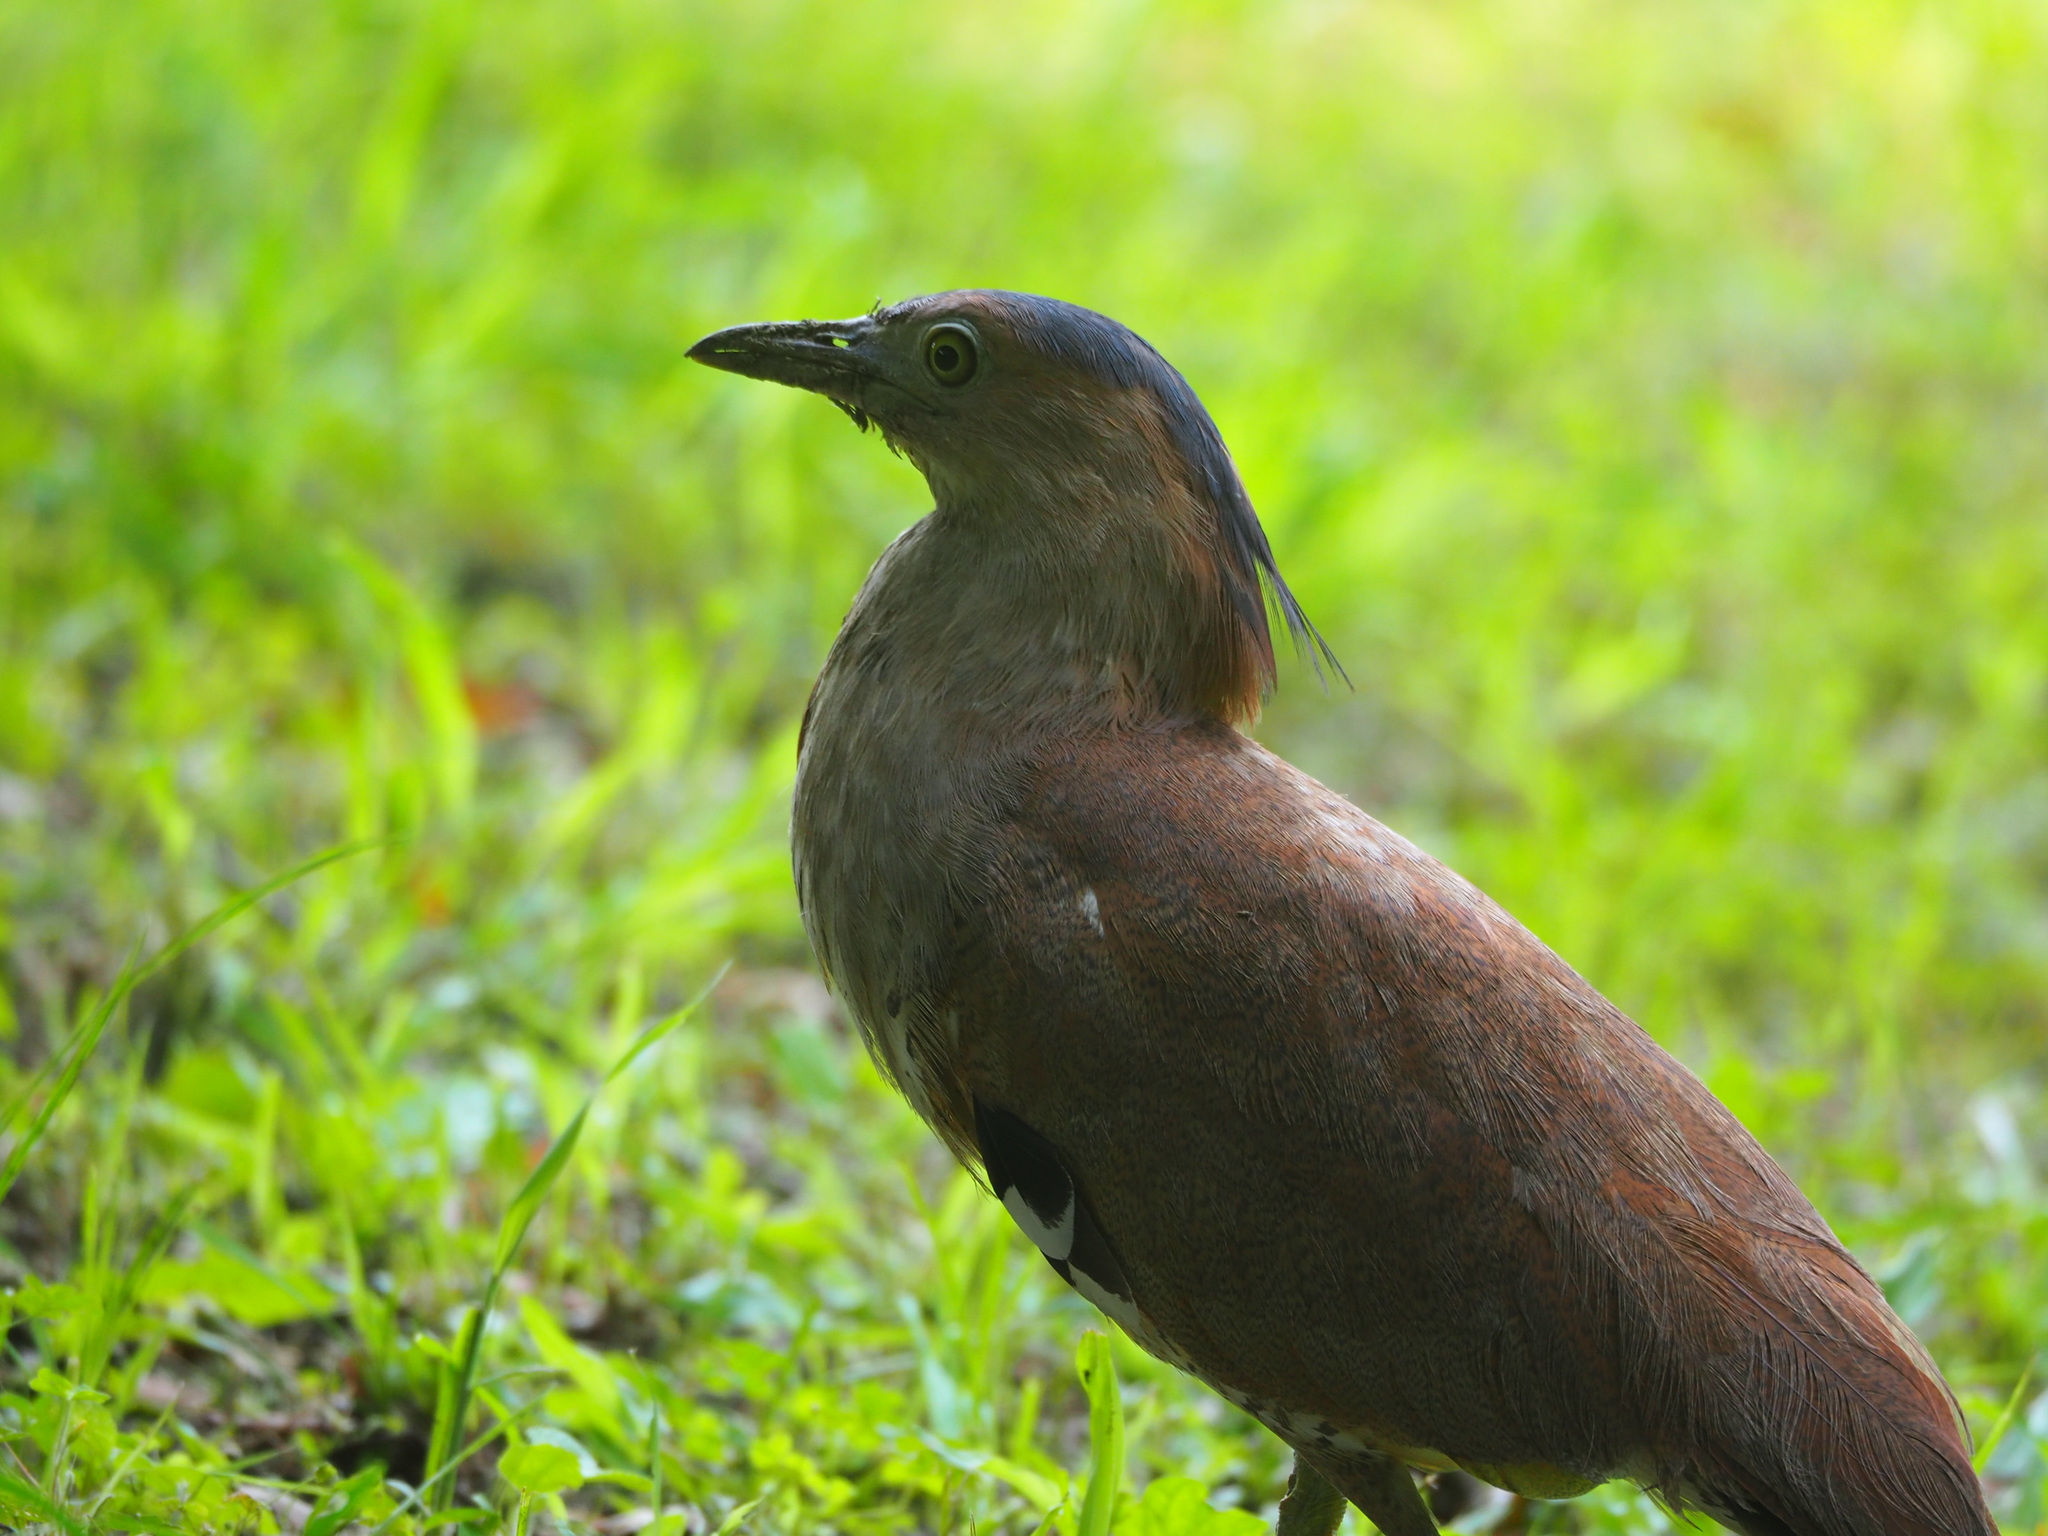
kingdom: Animalia
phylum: Chordata
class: Aves
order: Pelecaniformes
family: Ardeidae
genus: Gorsachius
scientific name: Gorsachius melanolophus
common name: Malayan night heron
